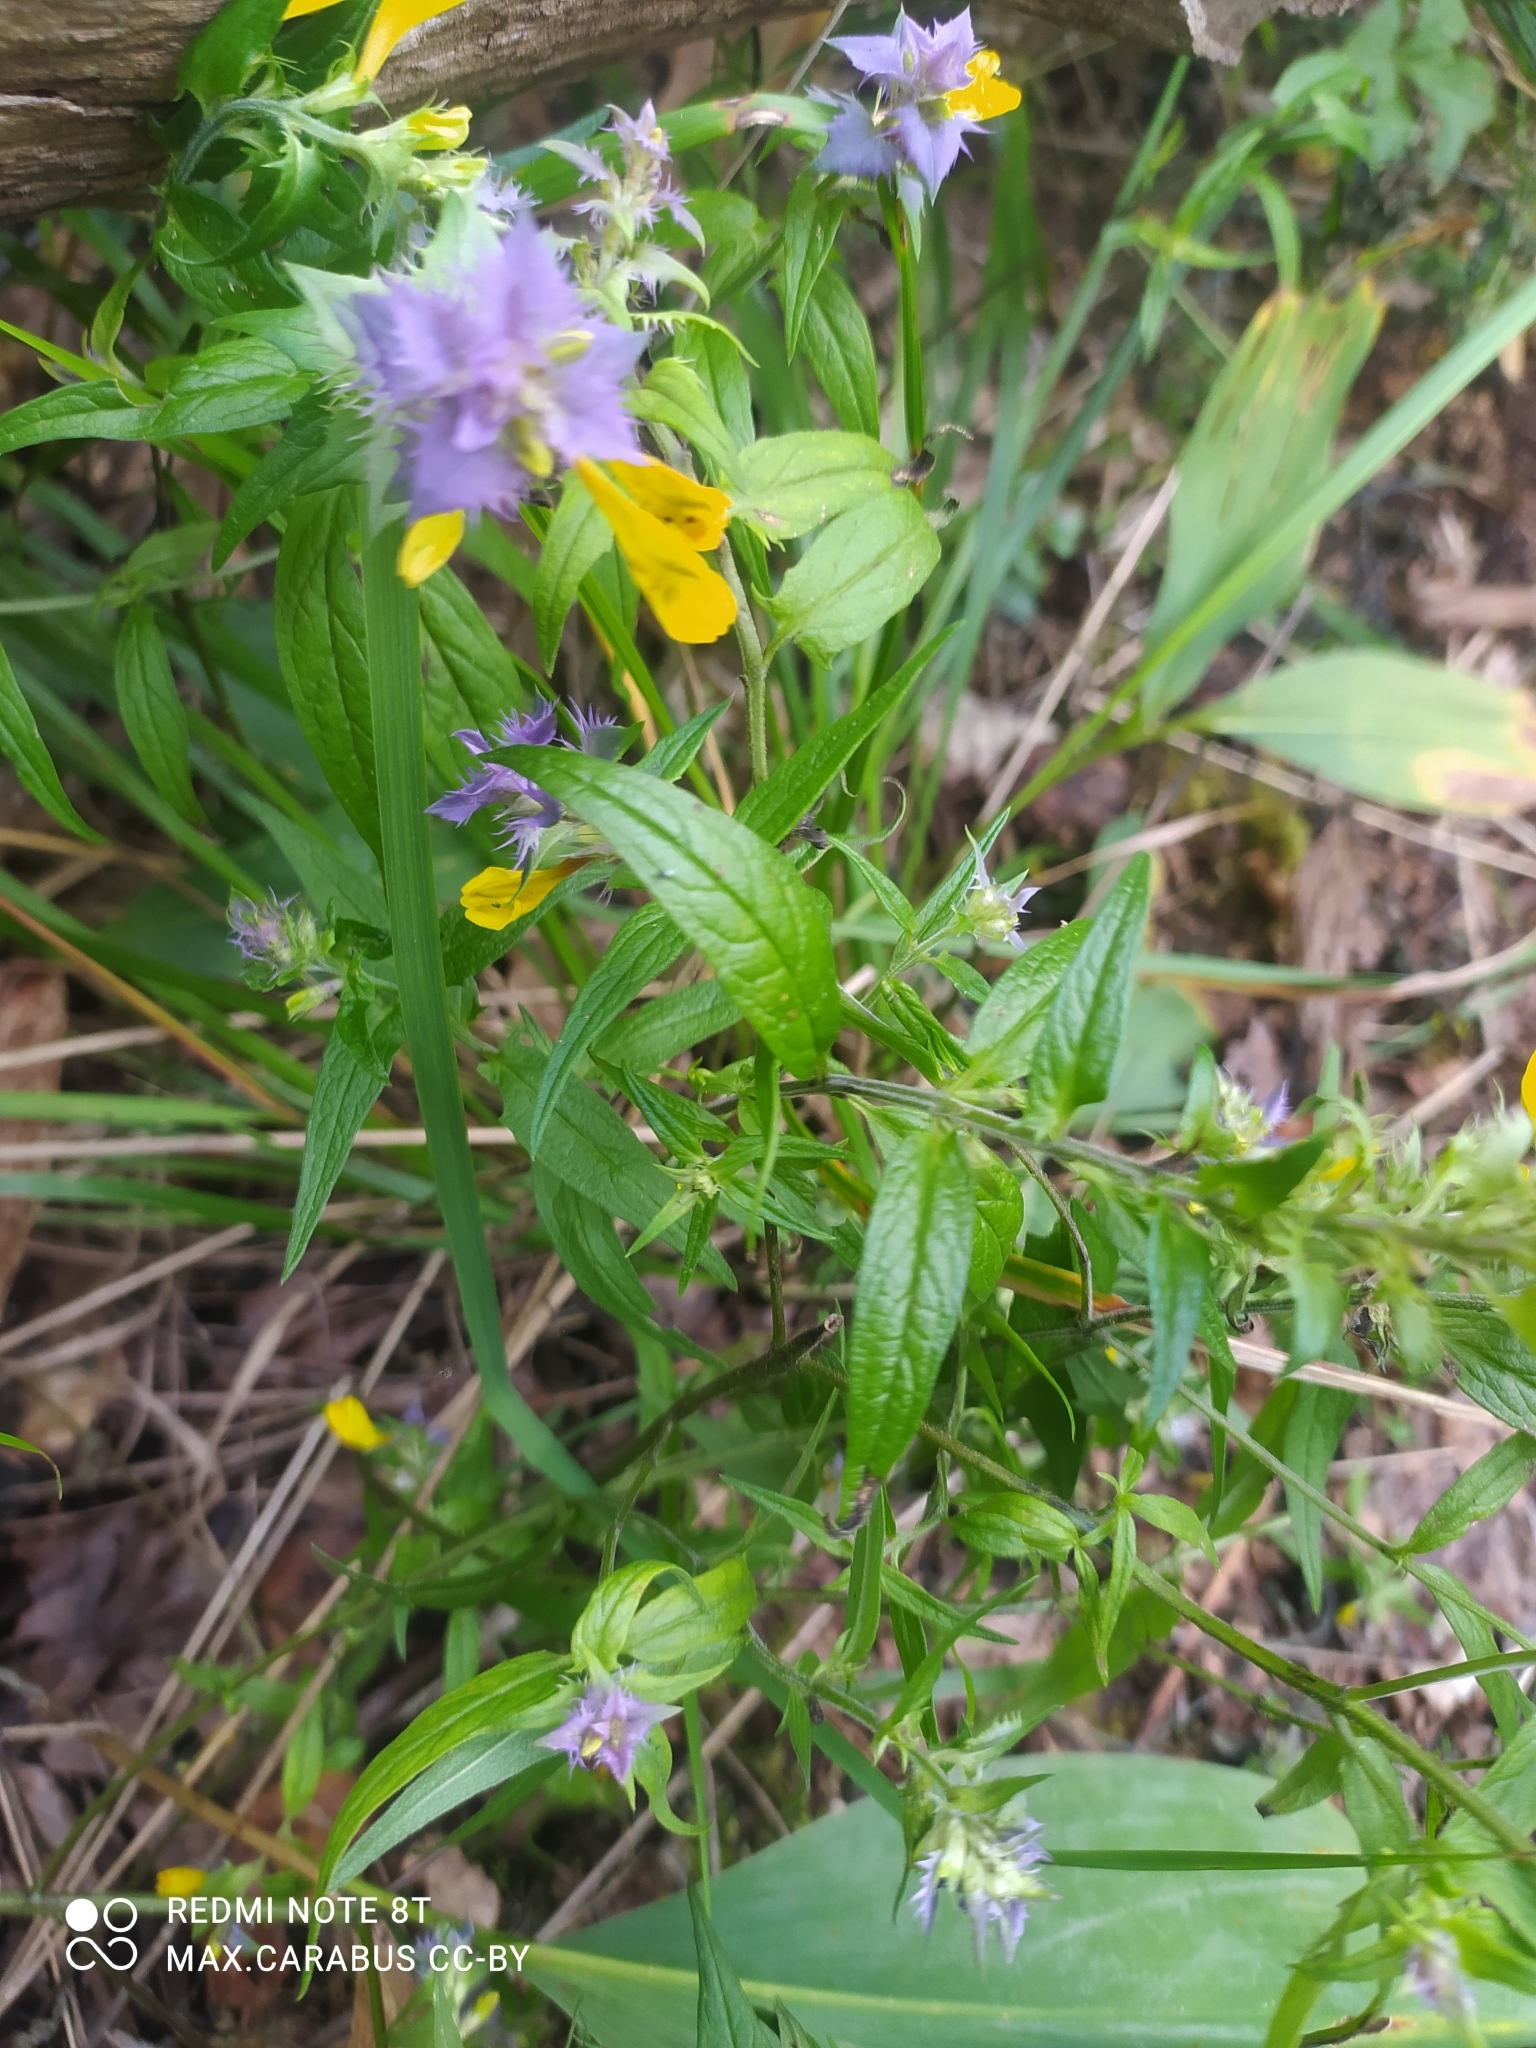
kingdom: Plantae
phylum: Tracheophyta
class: Magnoliopsida
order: Lamiales
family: Orobanchaceae
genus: Melampyrum
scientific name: Melampyrum nemorosum
